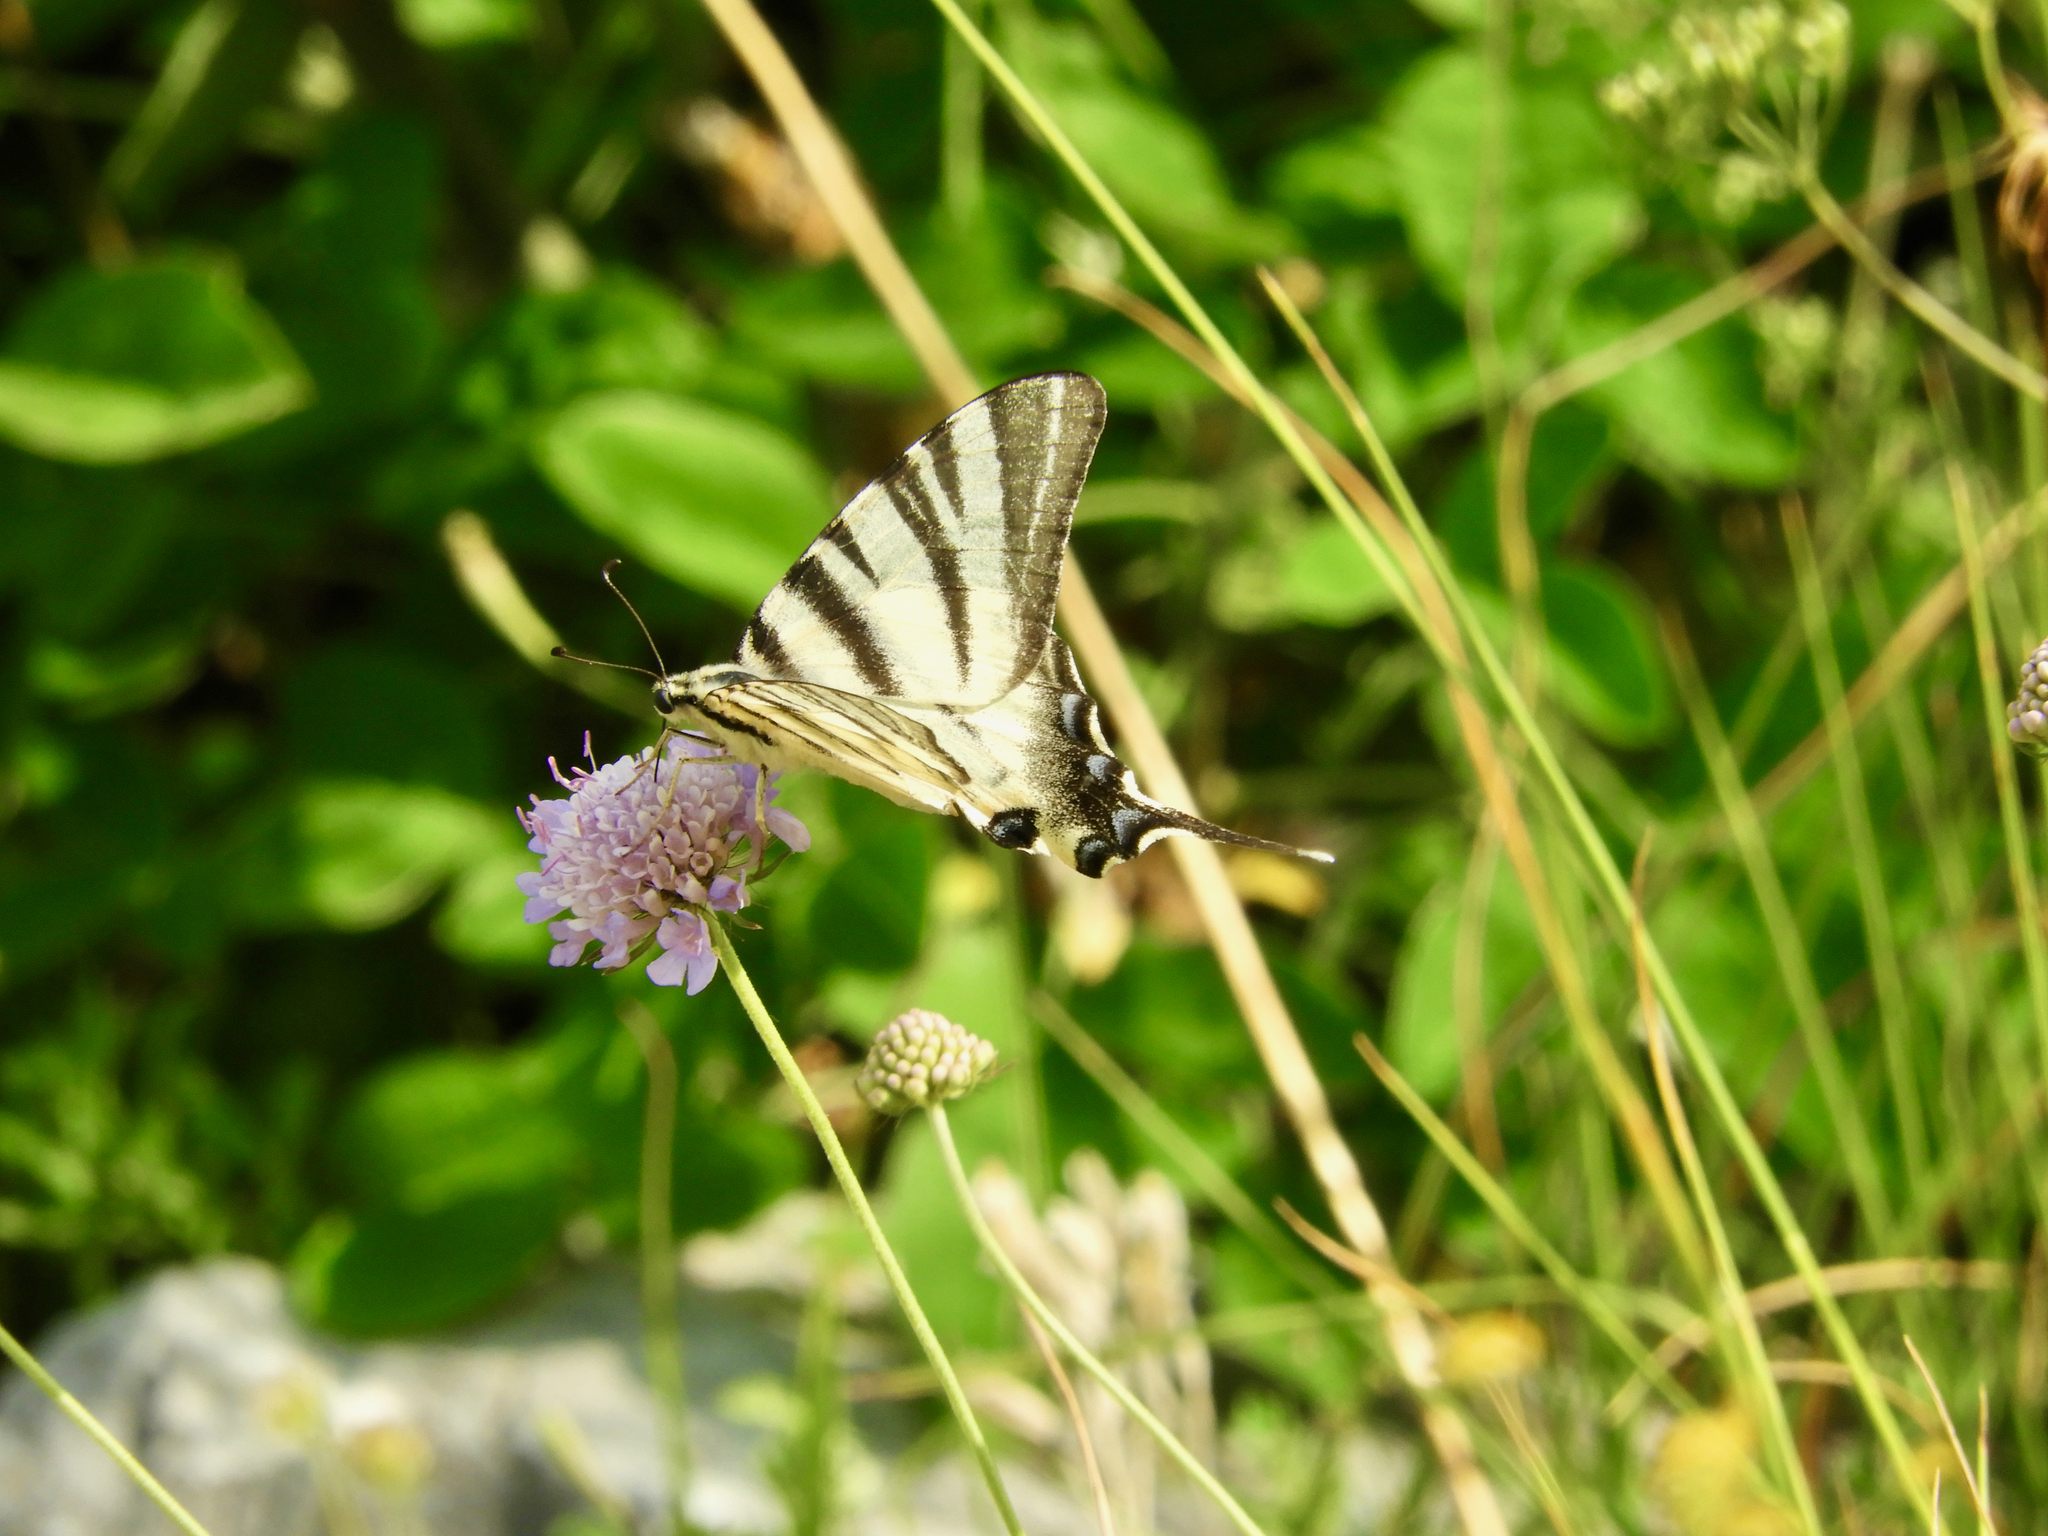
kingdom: Animalia
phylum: Arthropoda
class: Insecta
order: Lepidoptera
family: Papilionidae
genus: Iphiclides
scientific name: Iphiclides podalirius
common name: Scarce swallowtail
